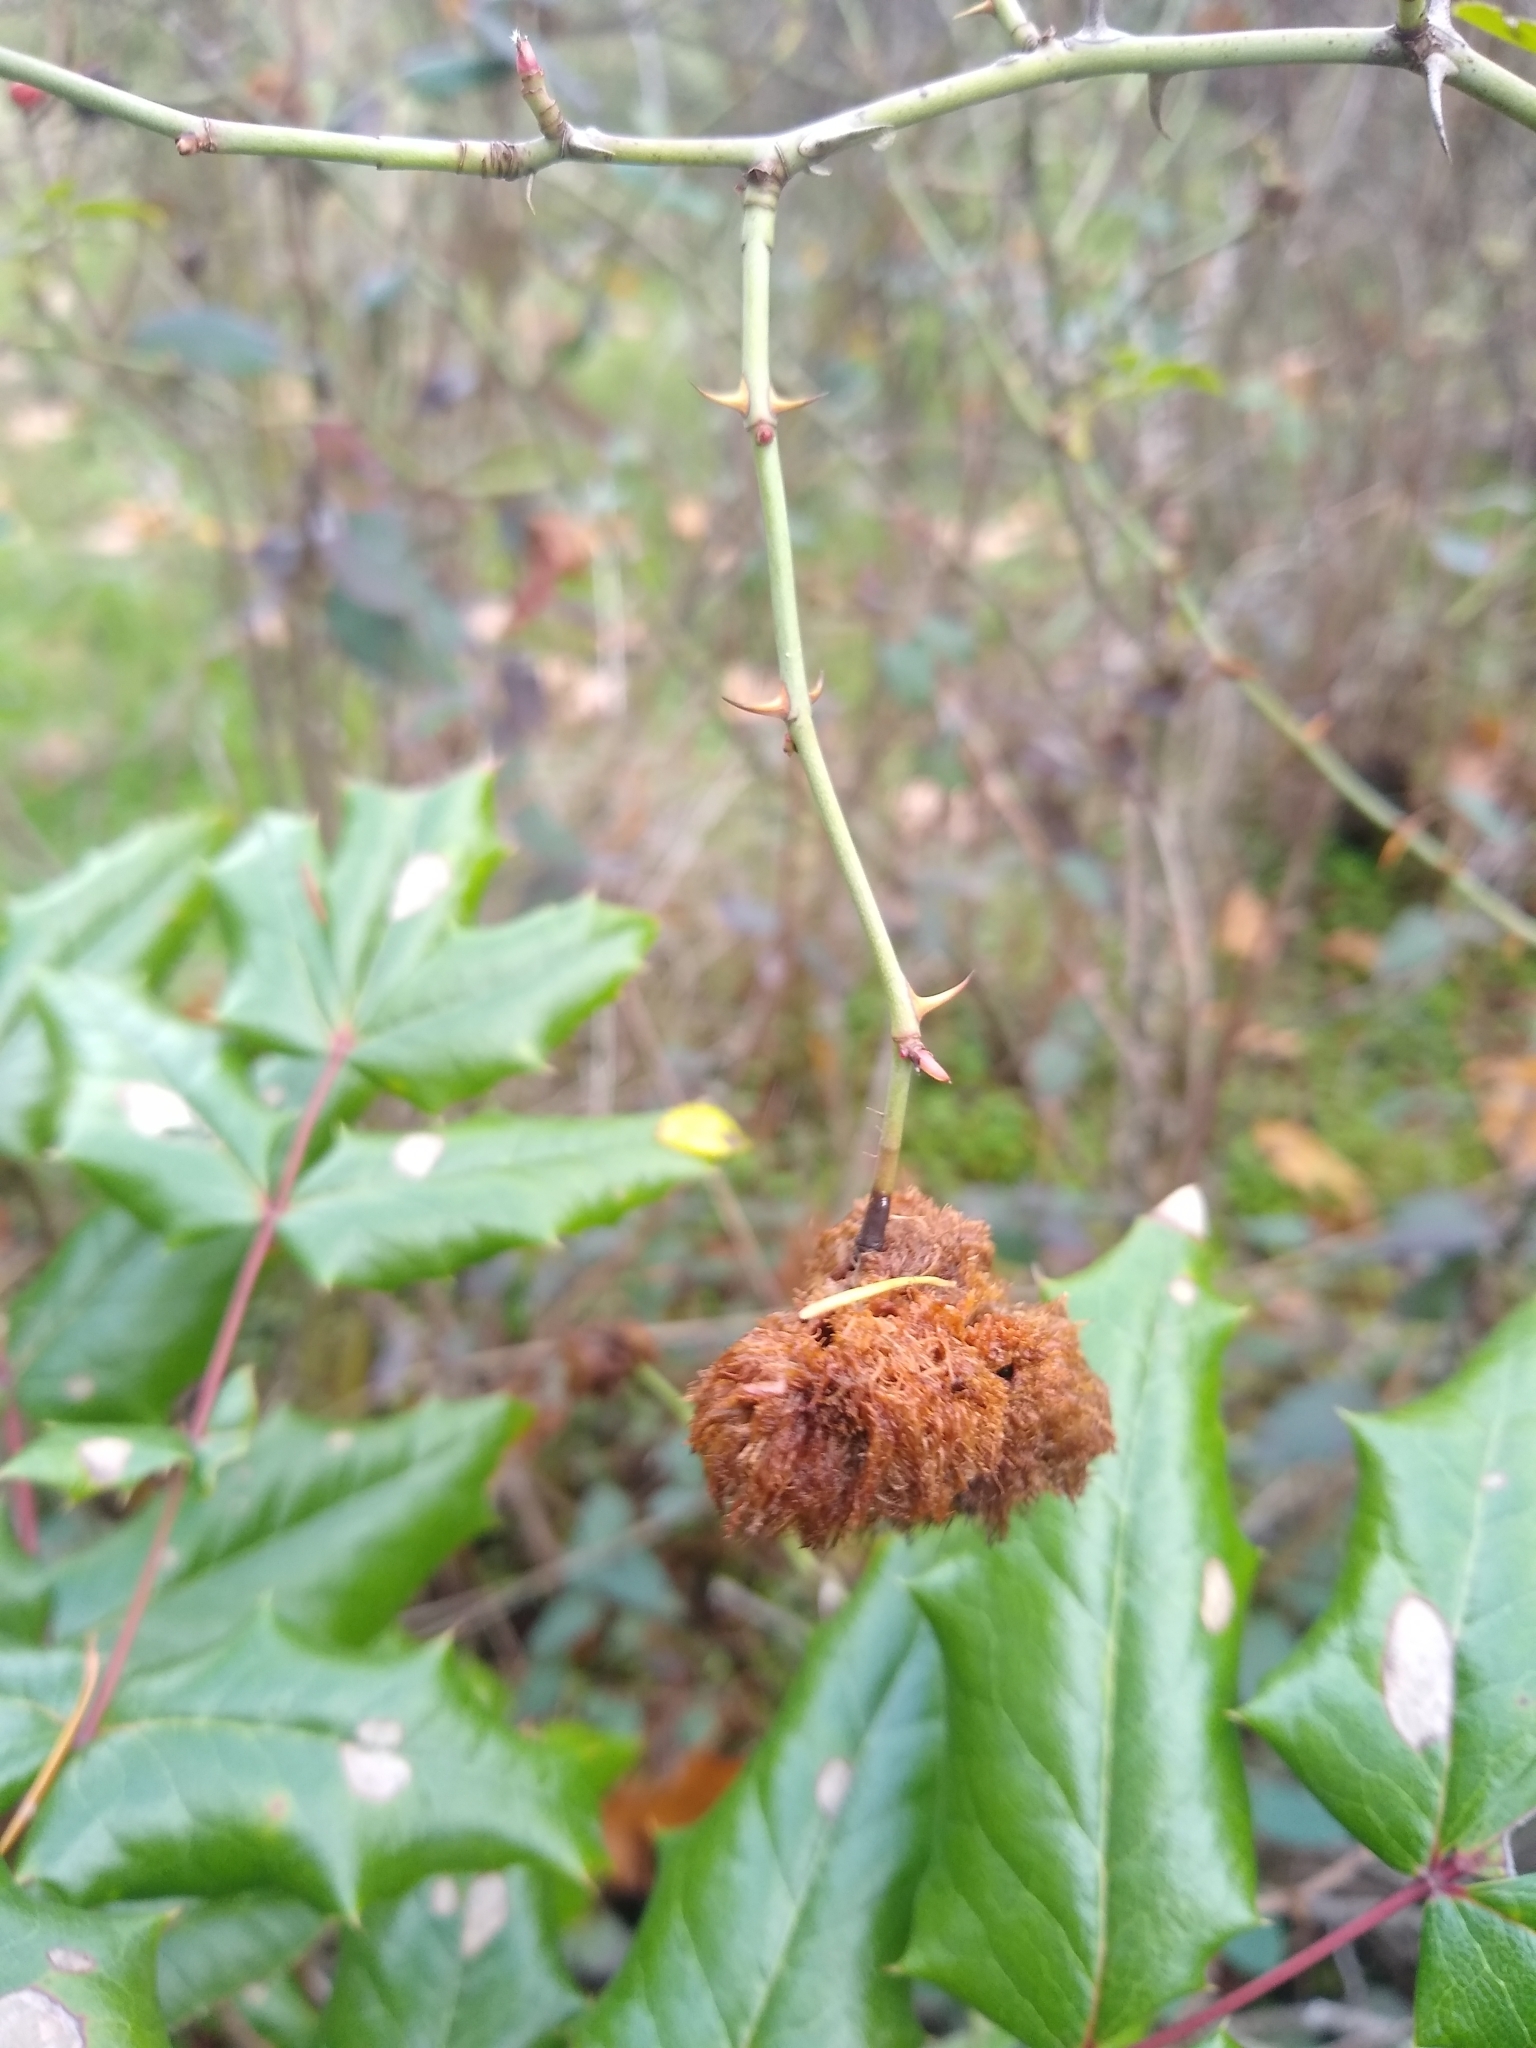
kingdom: Animalia
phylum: Arthropoda
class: Insecta
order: Hymenoptera
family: Cynipidae
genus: Diplolepis
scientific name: Diplolepis rosae
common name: Bedeguar gall
